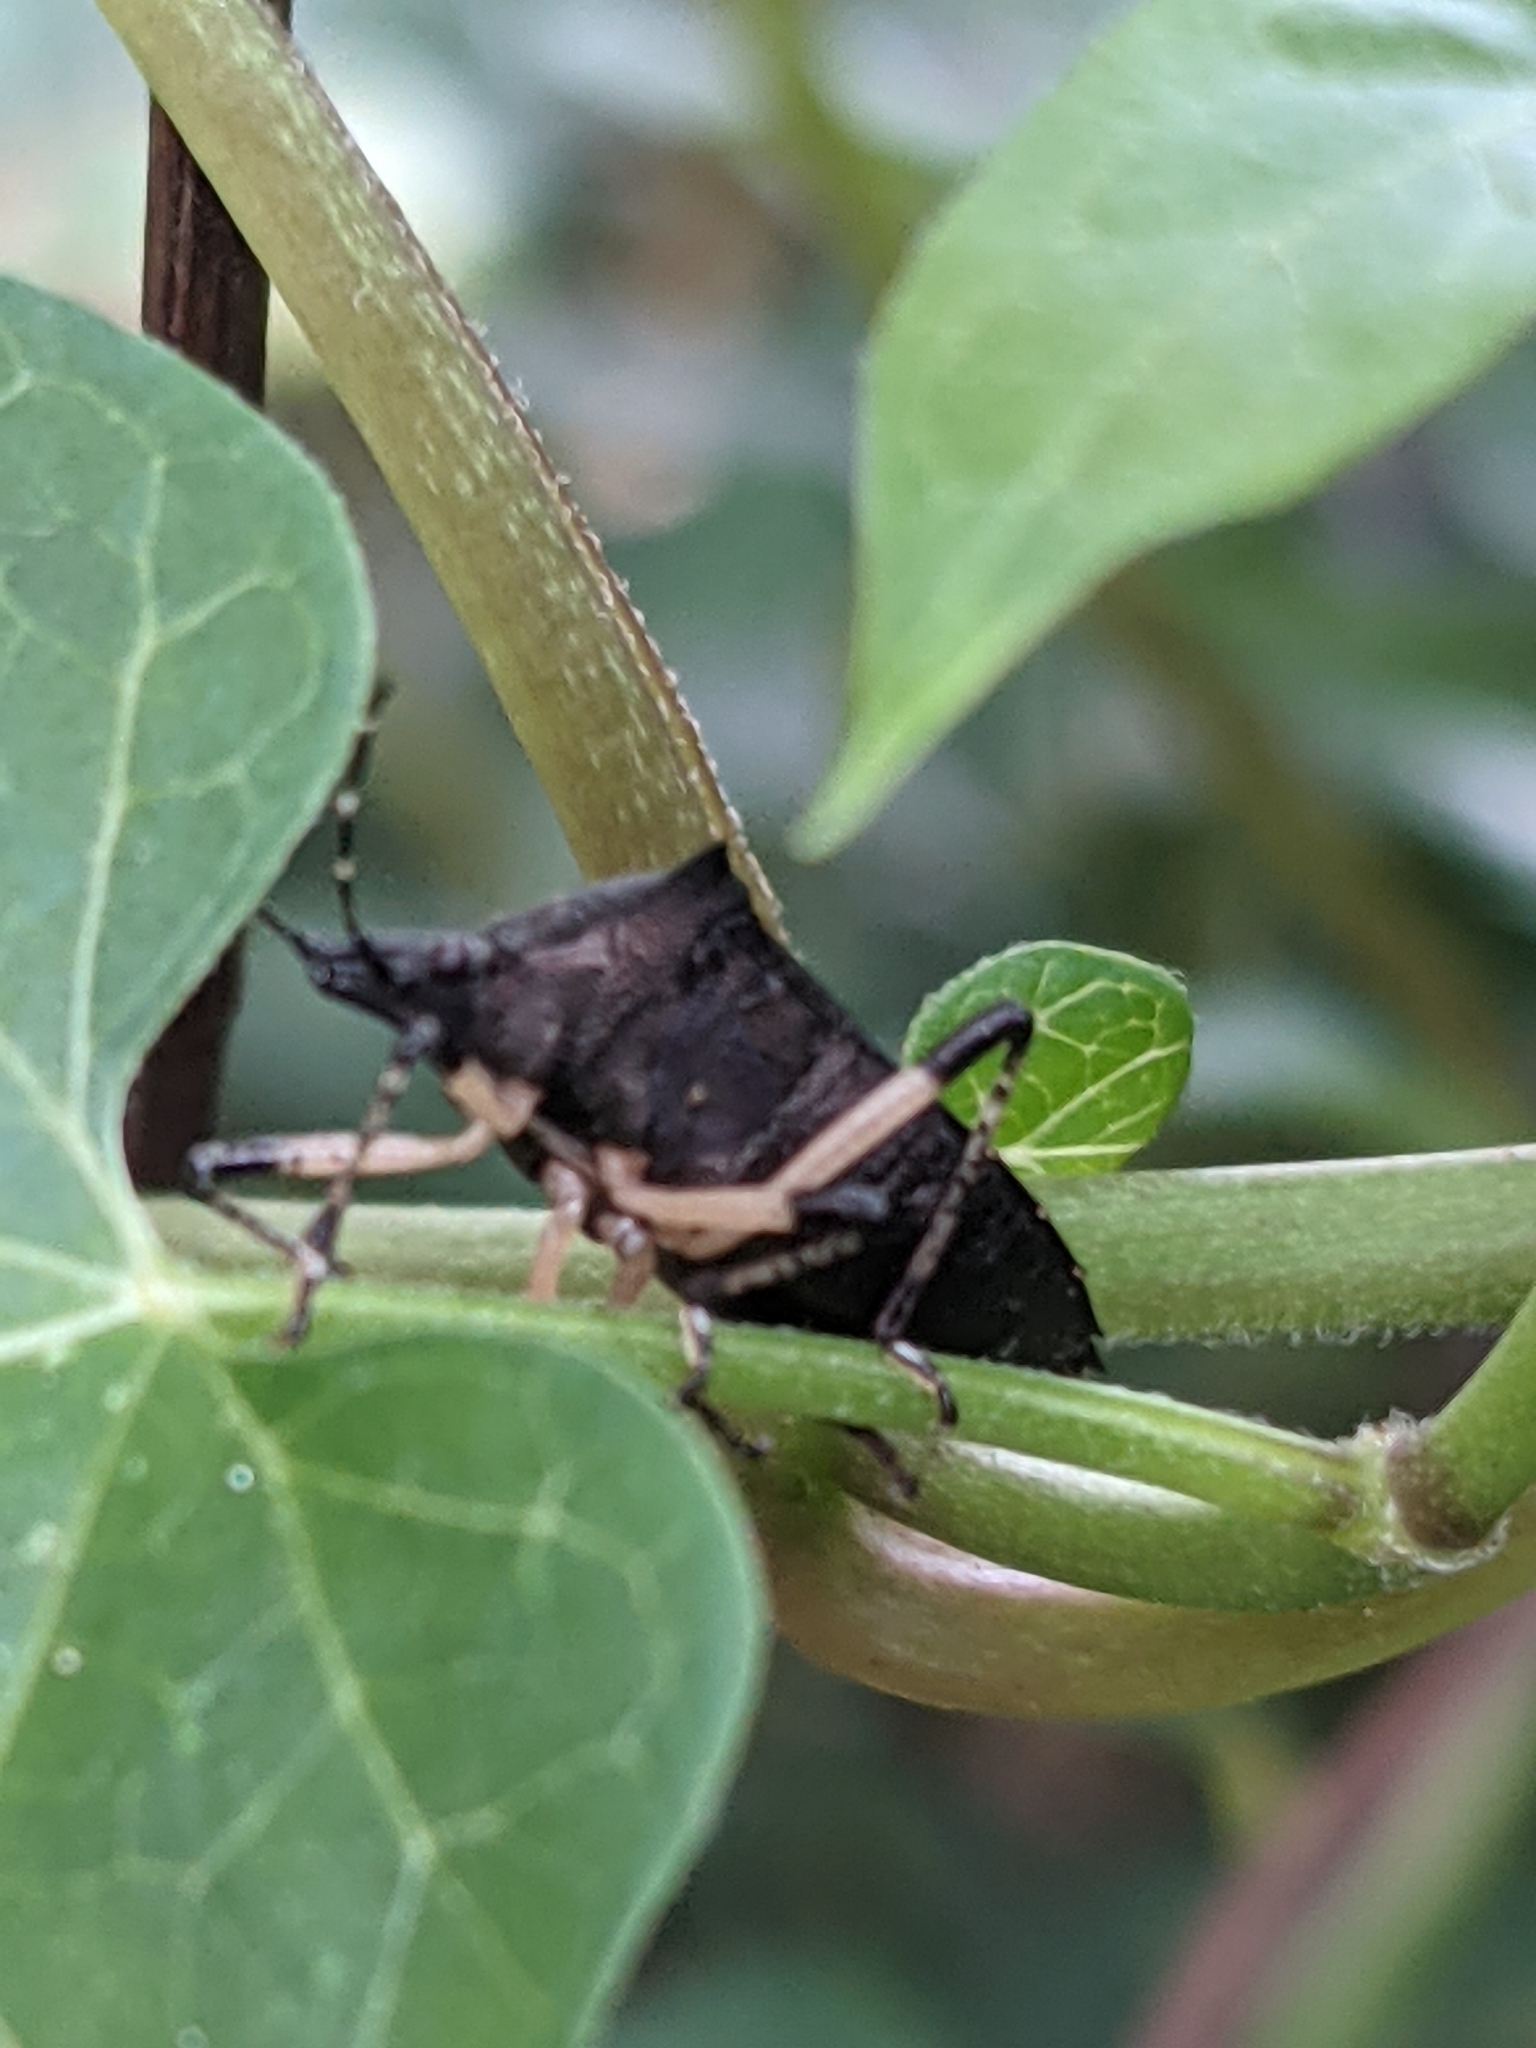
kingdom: Animalia
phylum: Arthropoda
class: Insecta
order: Hemiptera
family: Pentatomidae
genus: Proxys
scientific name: Proxys punctulatus
